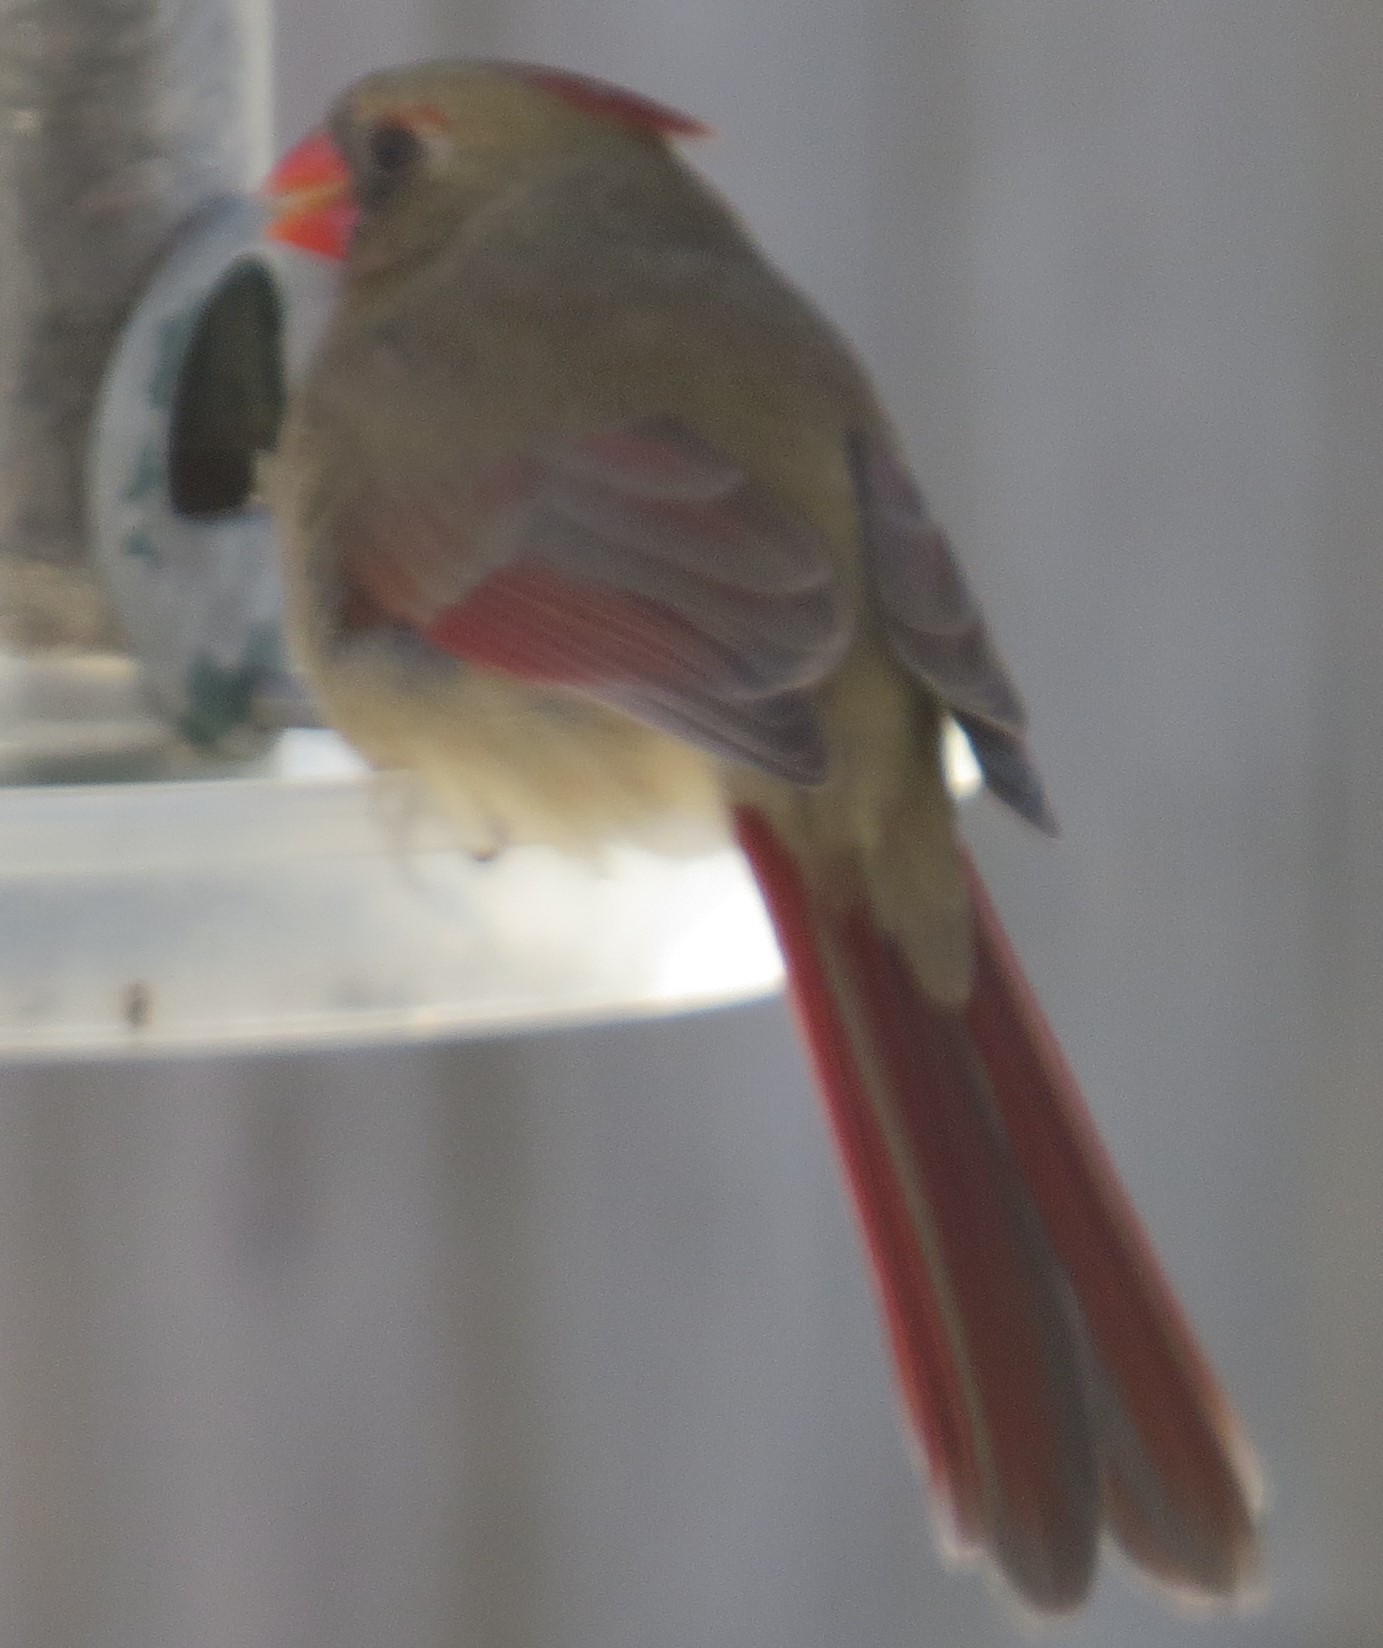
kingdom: Animalia
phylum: Chordata
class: Aves
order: Passeriformes
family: Cardinalidae
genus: Cardinalis
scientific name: Cardinalis cardinalis
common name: Northern cardinal
